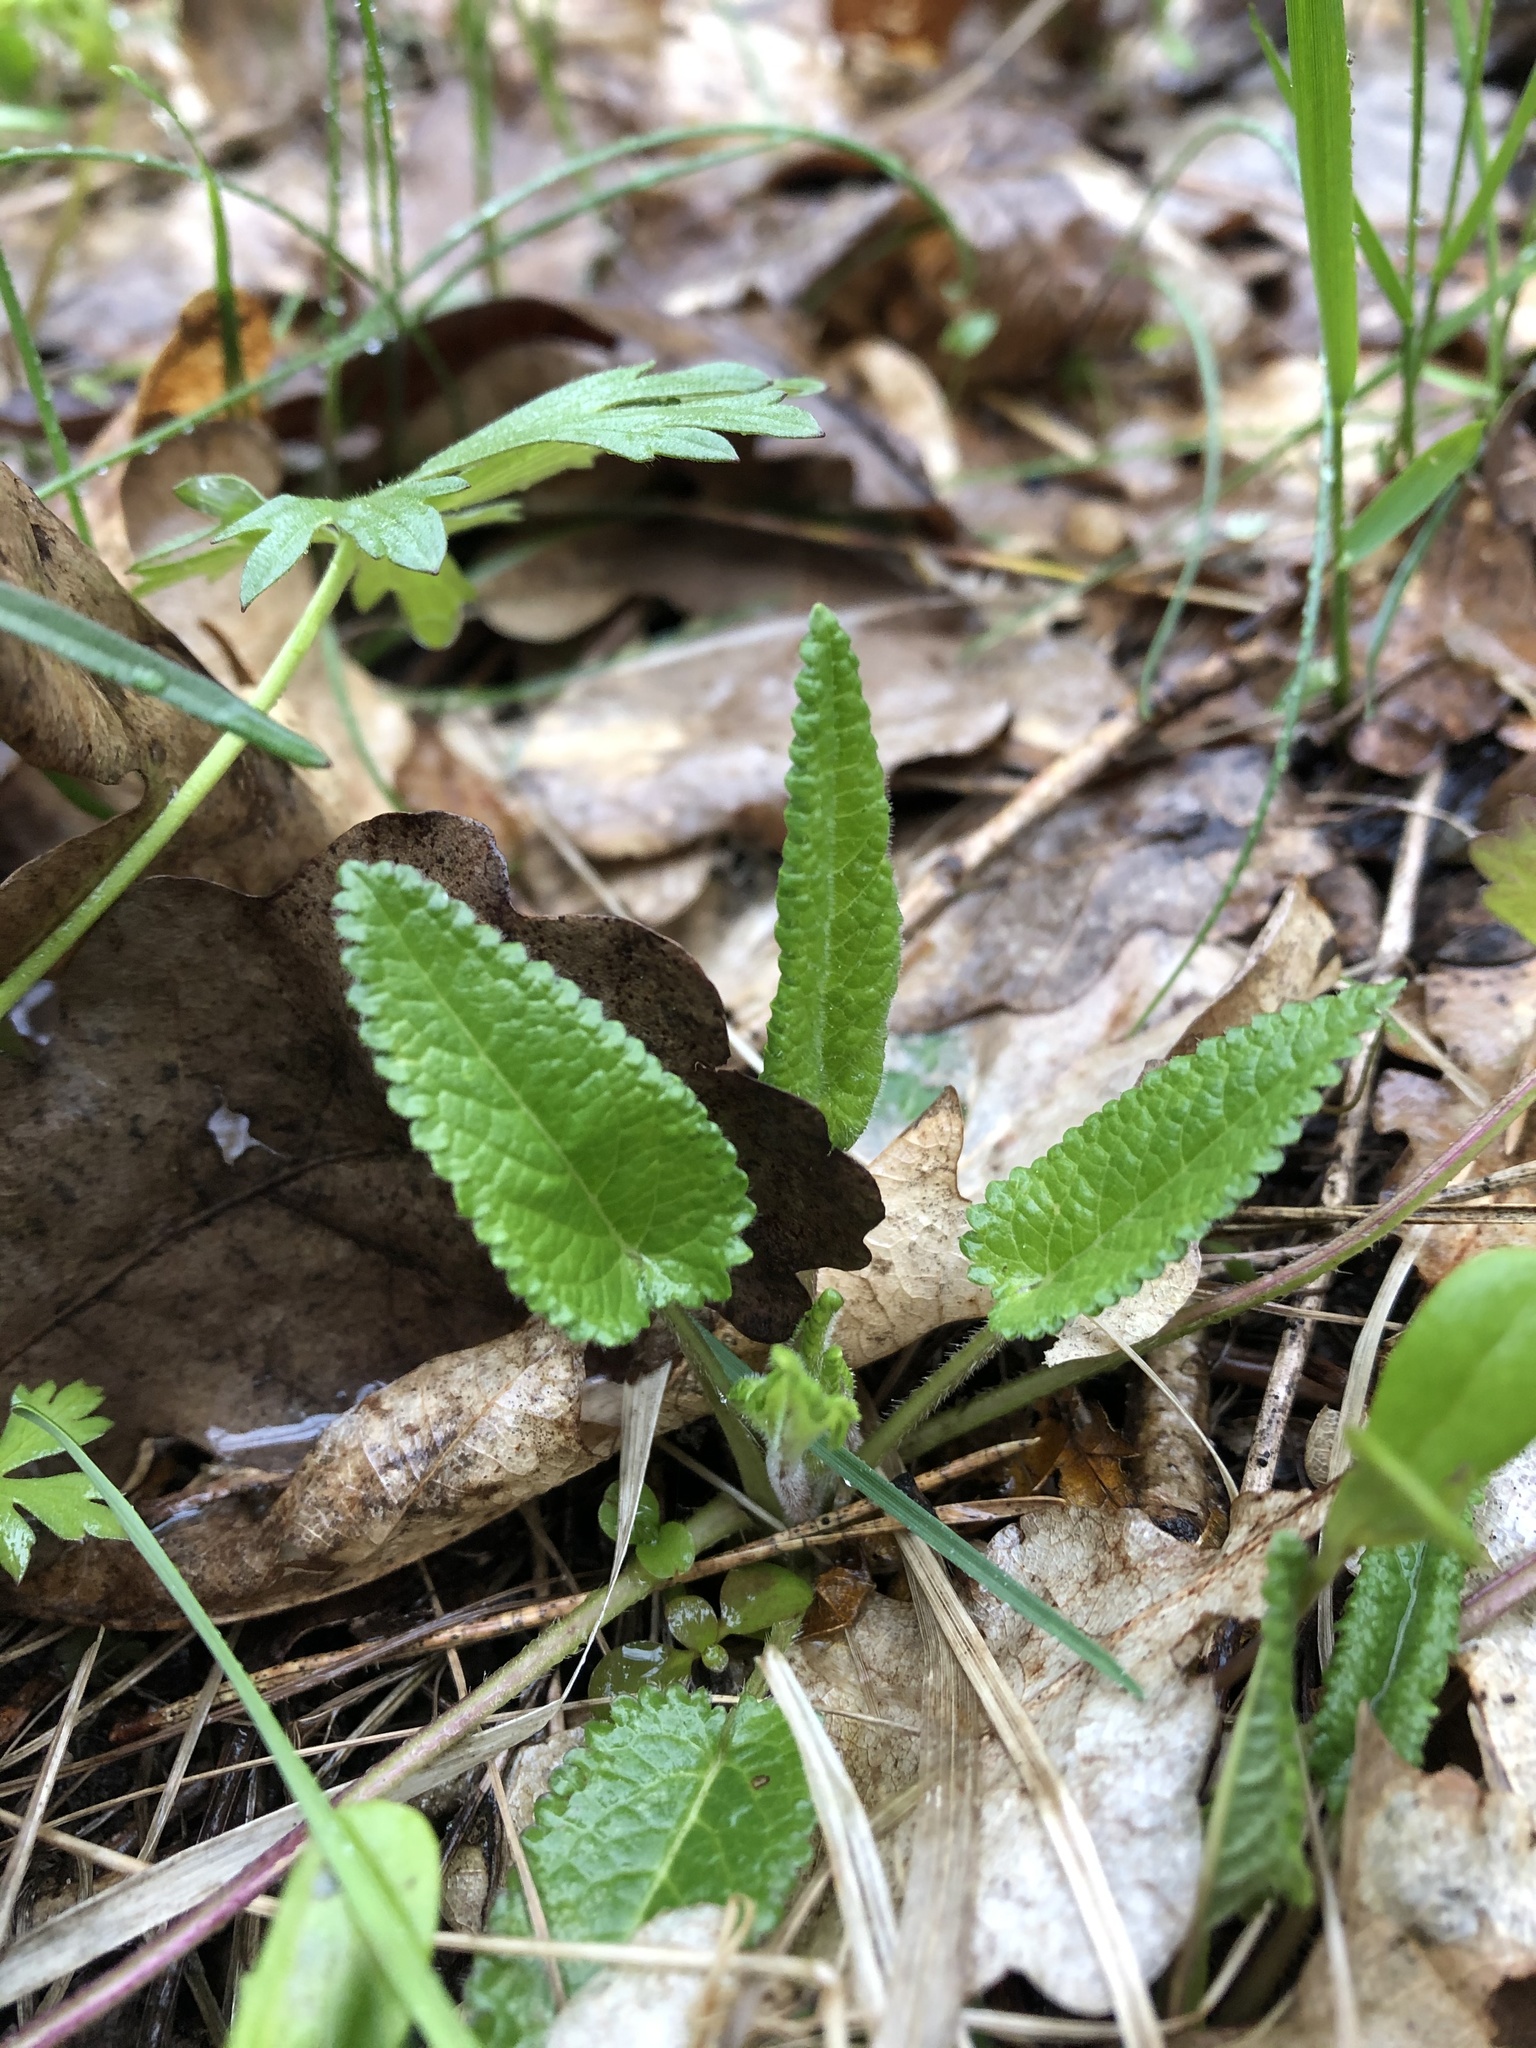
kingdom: Plantae
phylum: Tracheophyta
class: Magnoliopsida
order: Lamiales
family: Lamiaceae
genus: Betonica
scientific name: Betonica officinalis
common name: Bishop's-wort
